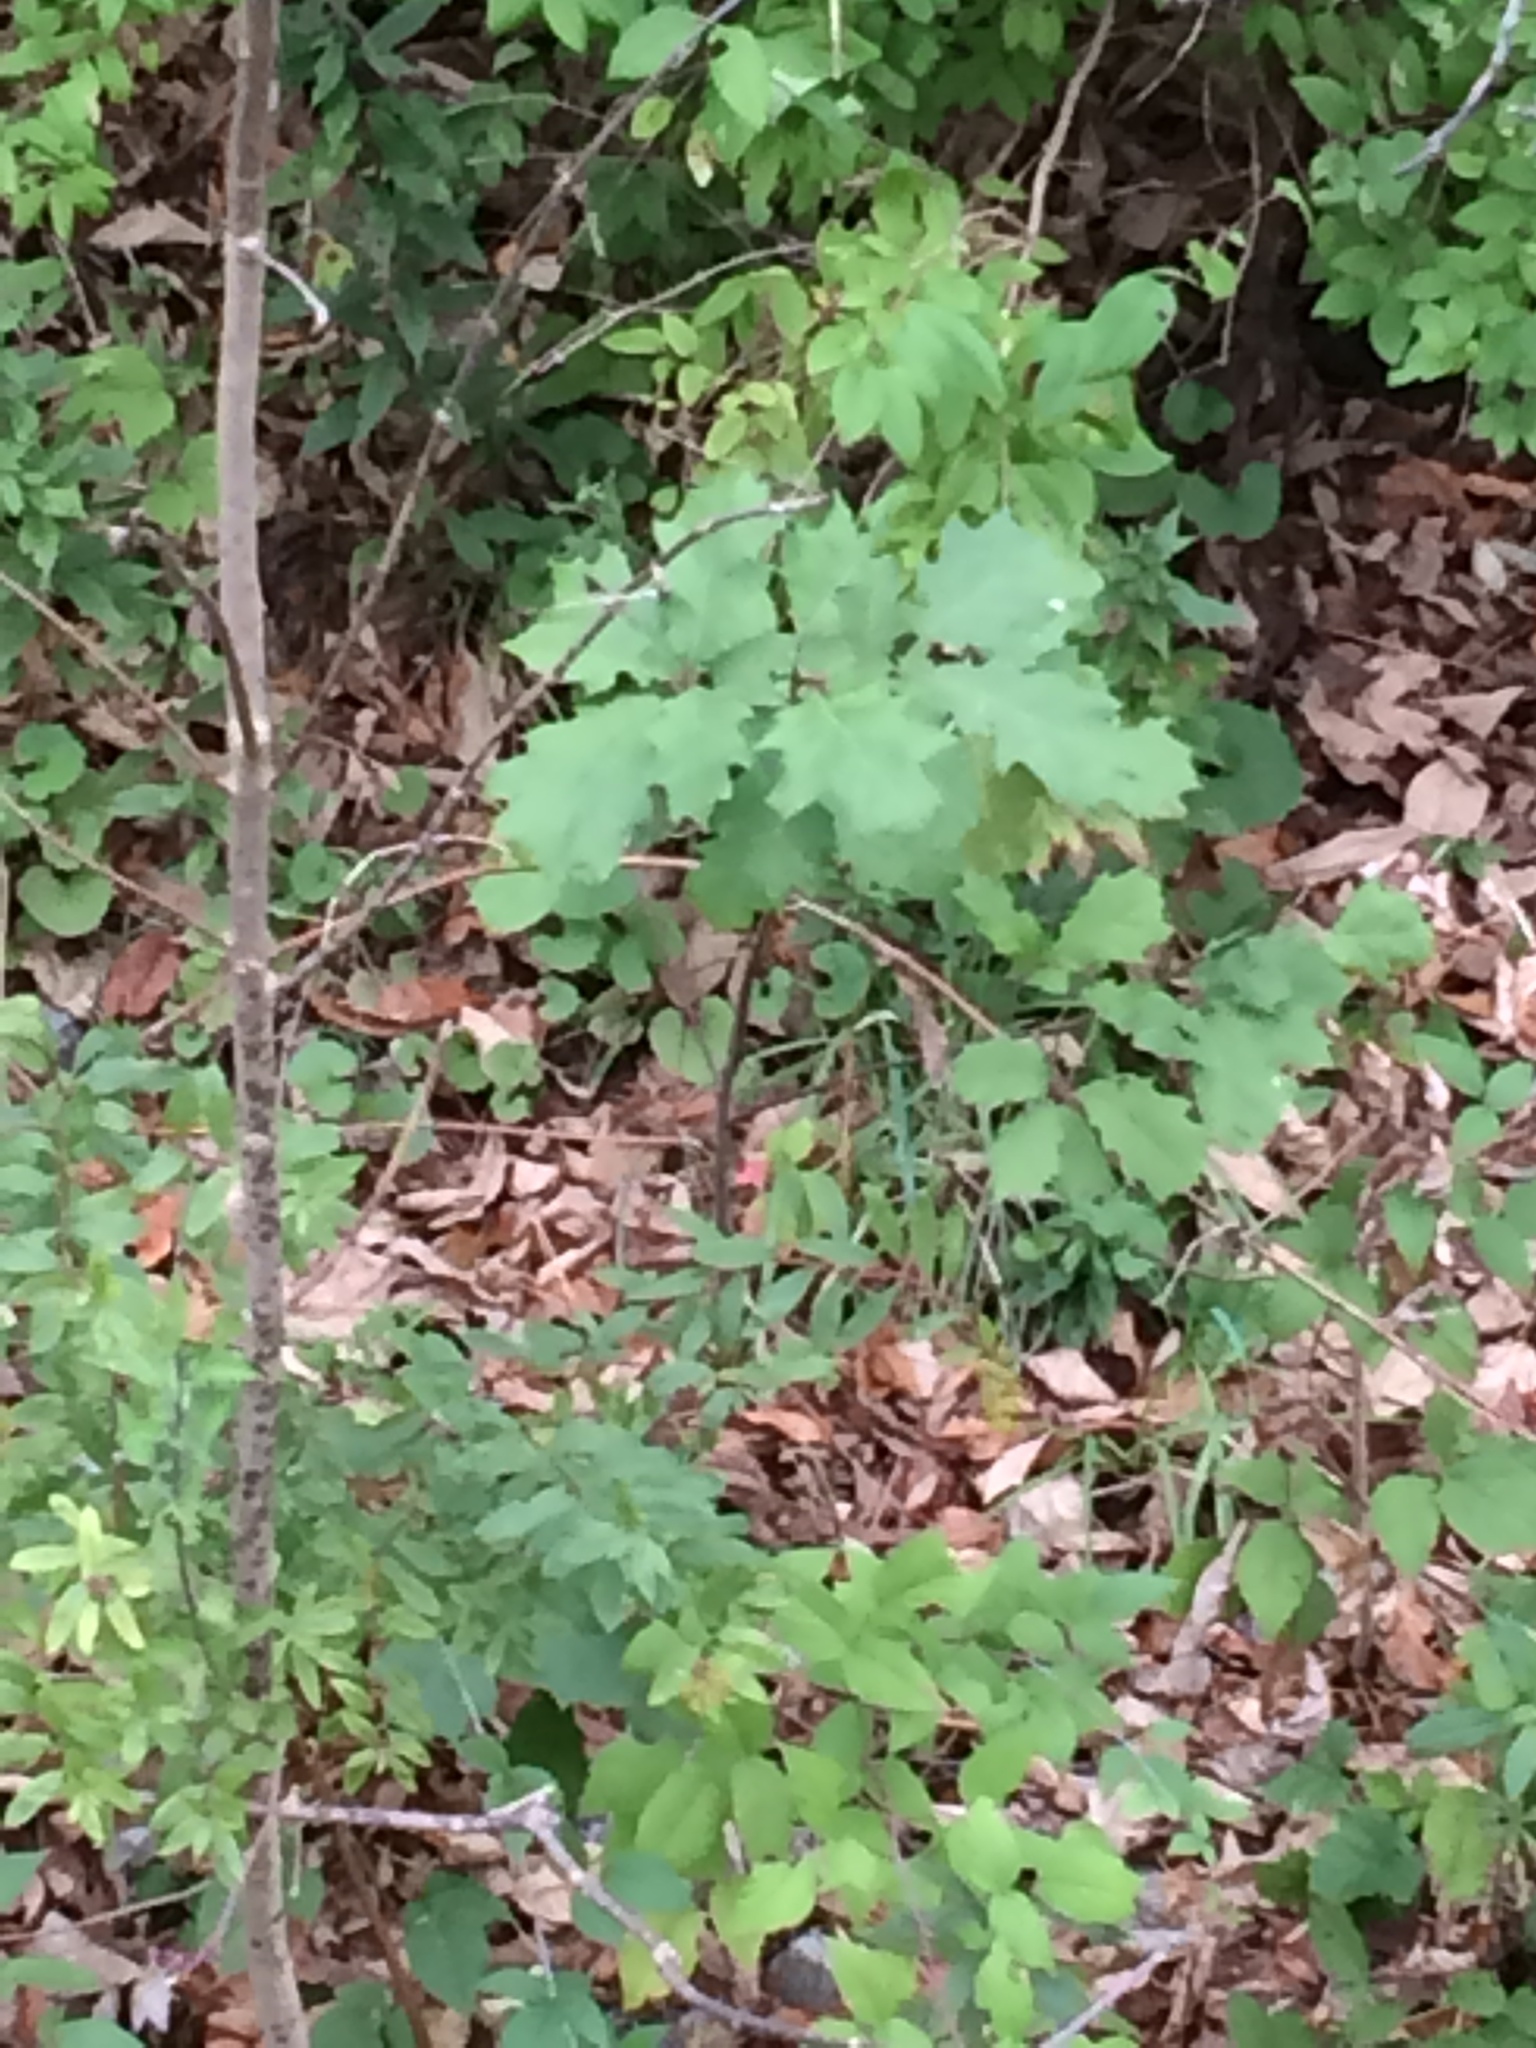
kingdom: Plantae
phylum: Tracheophyta
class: Magnoliopsida
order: Fagales
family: Fagaceae
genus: Quercus
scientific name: Quercus rubra
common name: Red oak
